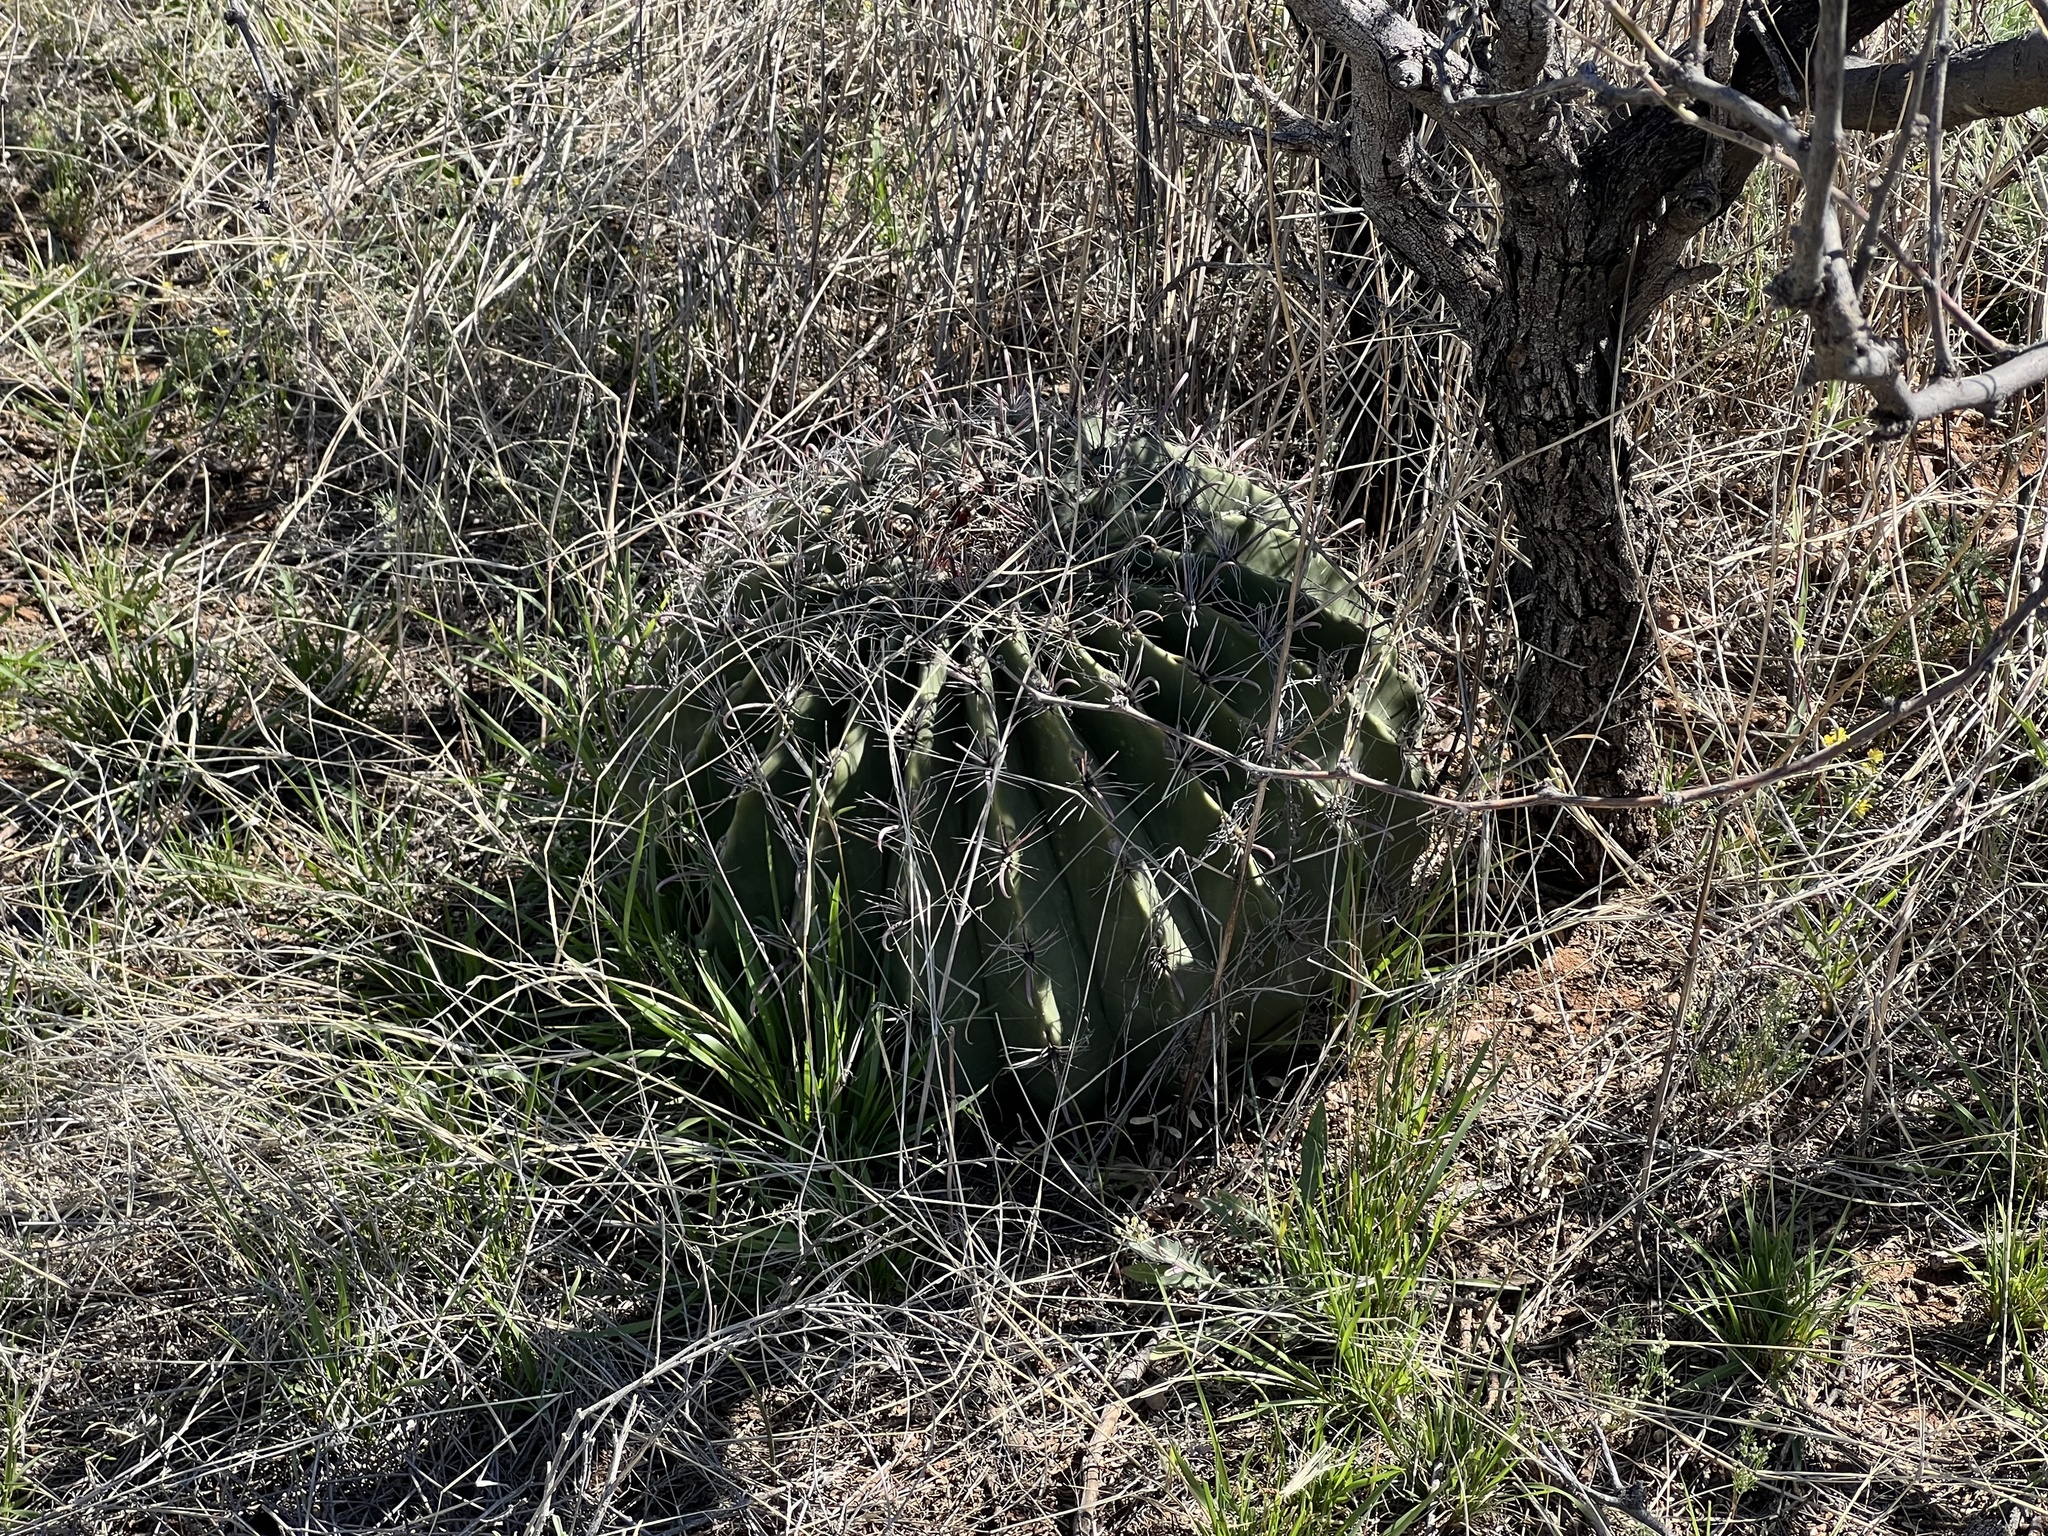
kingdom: Plantae
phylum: Tracheophyta
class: Magnoliopsida
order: Caryophyllales
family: Cactaceae
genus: Ferocactus
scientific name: Ferocactus wislizeni
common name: Candy barrel cactus
